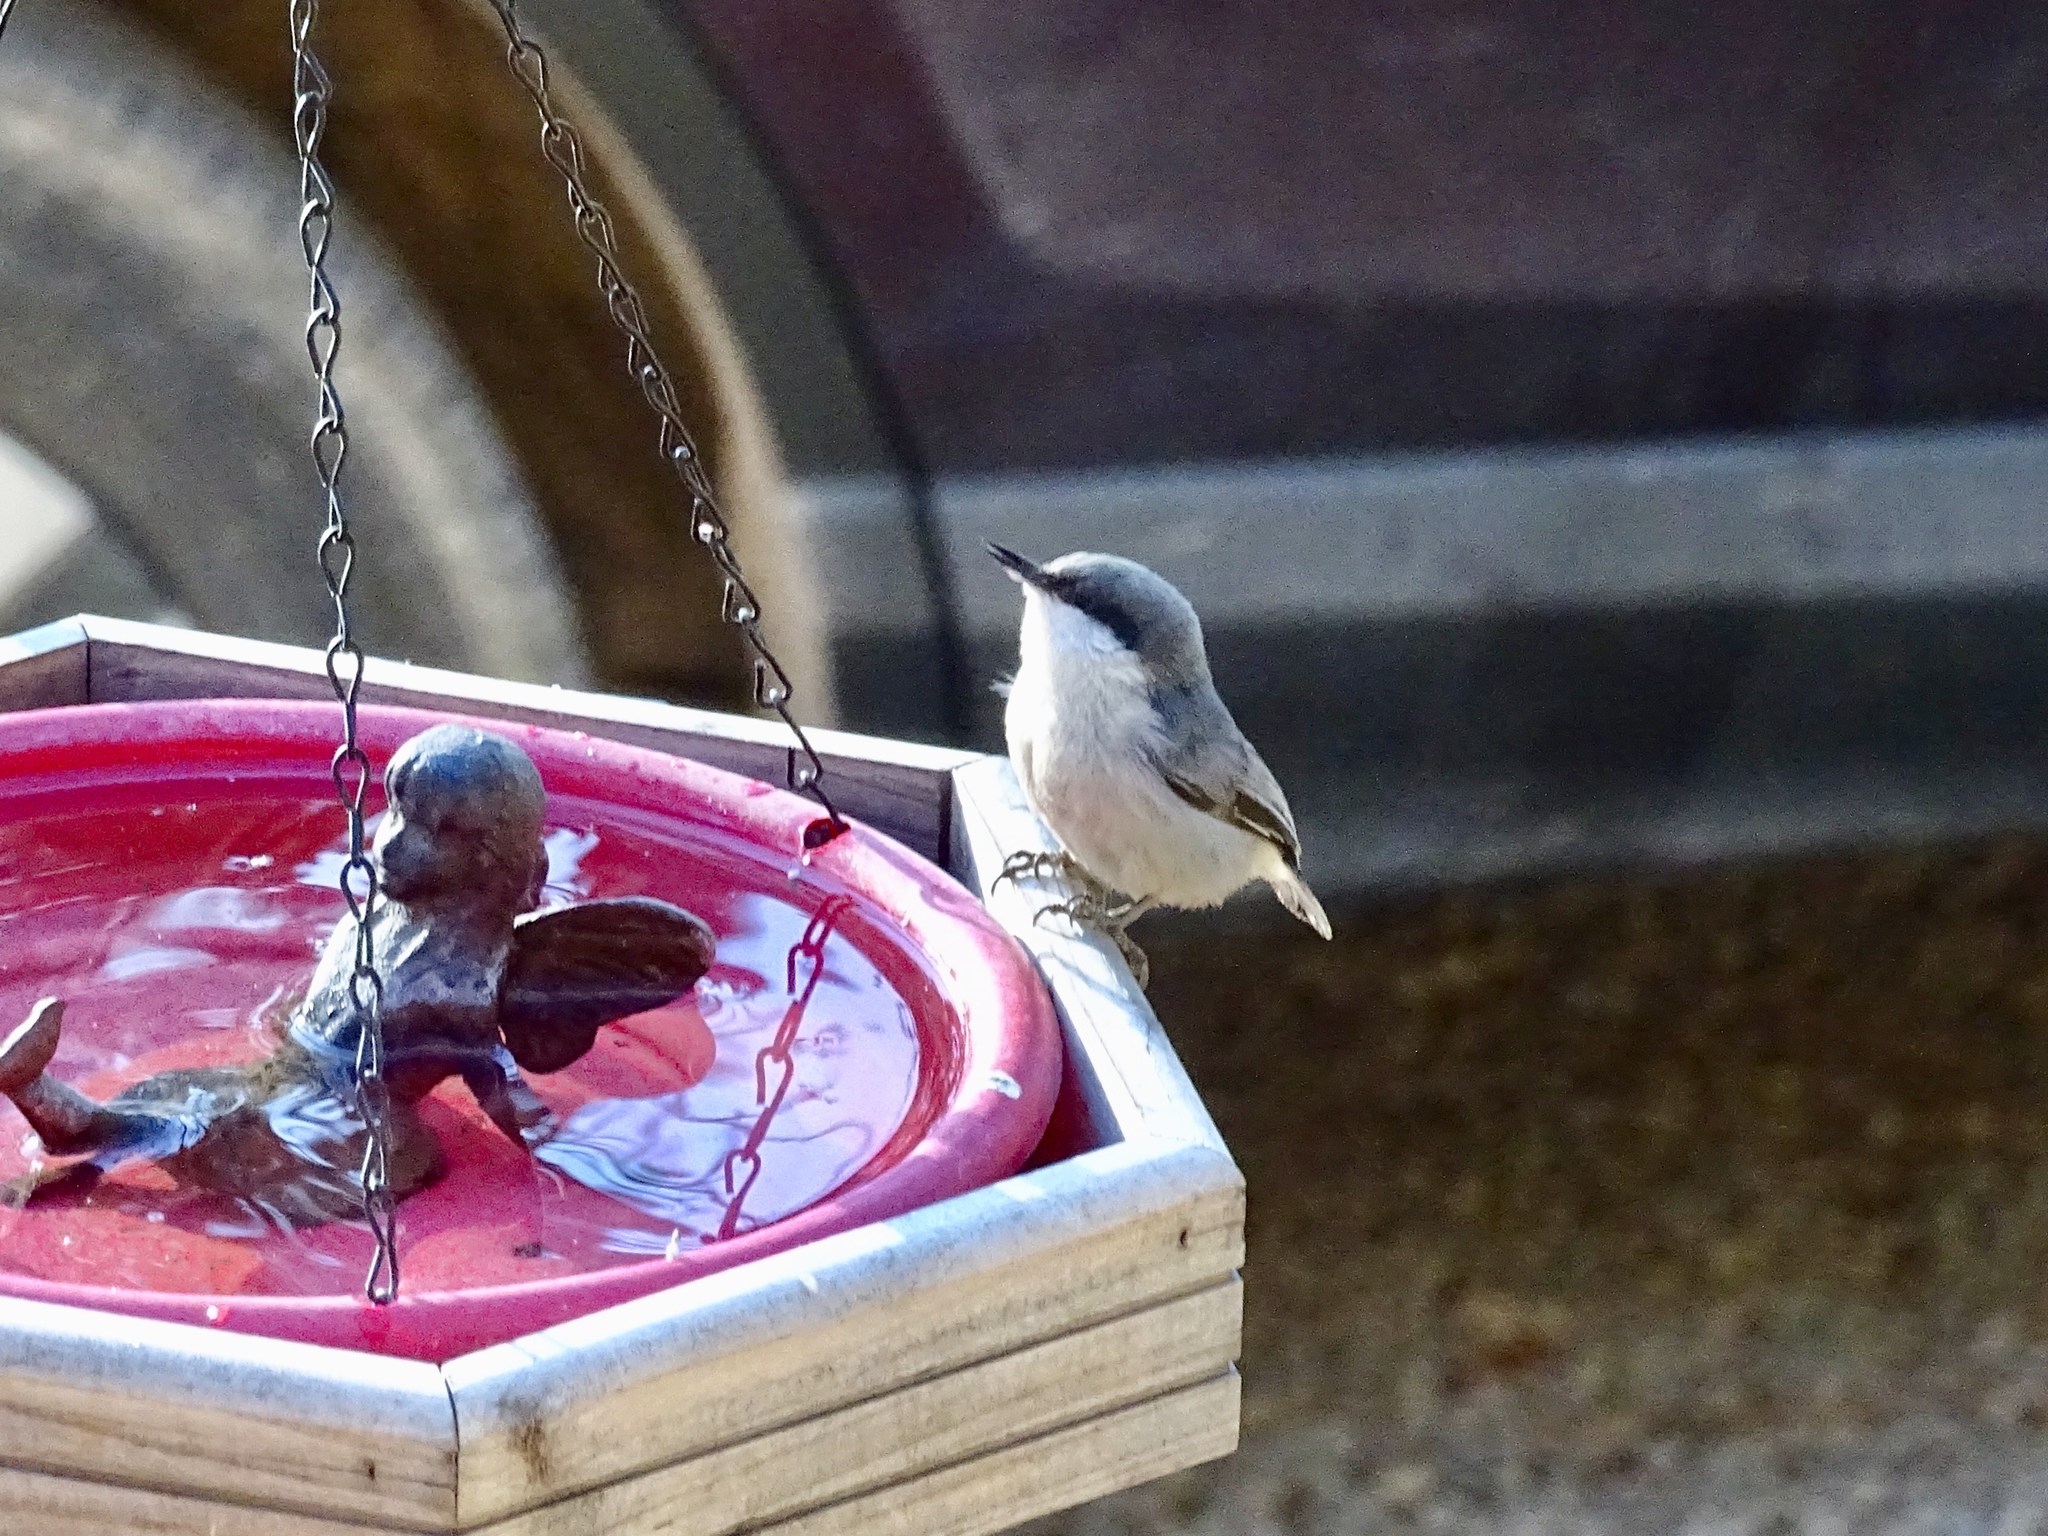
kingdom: Animalia
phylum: Chordata
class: Aves
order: Passeriformes
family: Sittidae
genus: Sitta
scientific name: Sitta pygmaea
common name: Pygmy nuthatch
